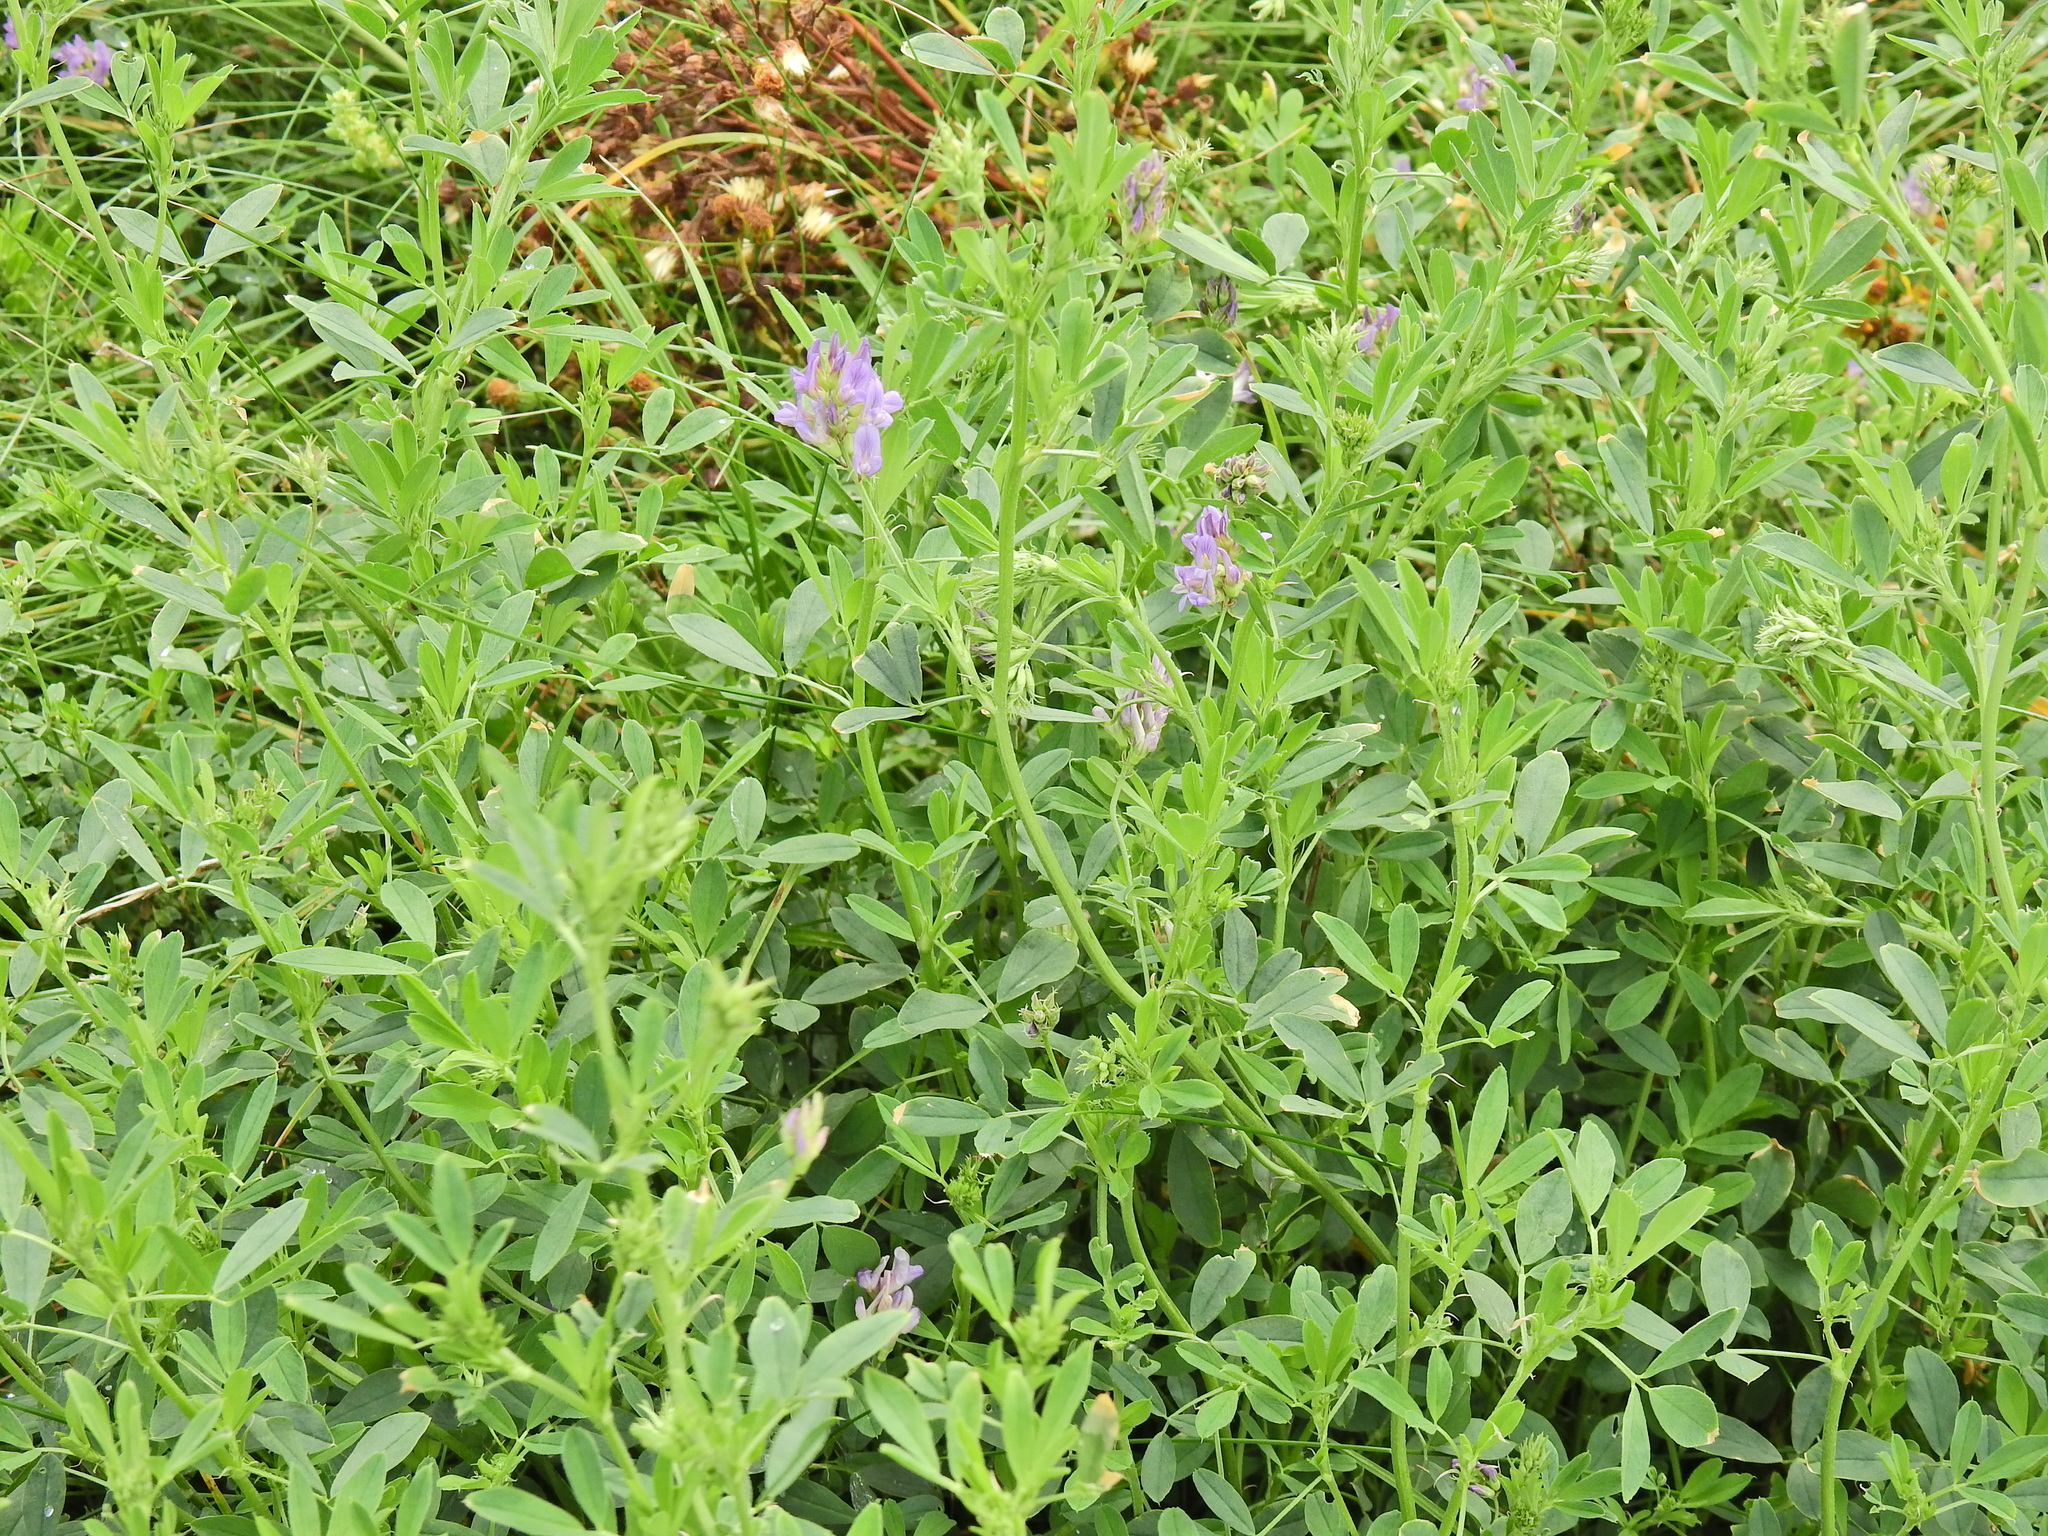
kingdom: Plantae
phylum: Tracheophyta
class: Magnoliopsida
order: Fabales
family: Fabaceae
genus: Medicago
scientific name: Medicago sativa
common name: Alfalfa
